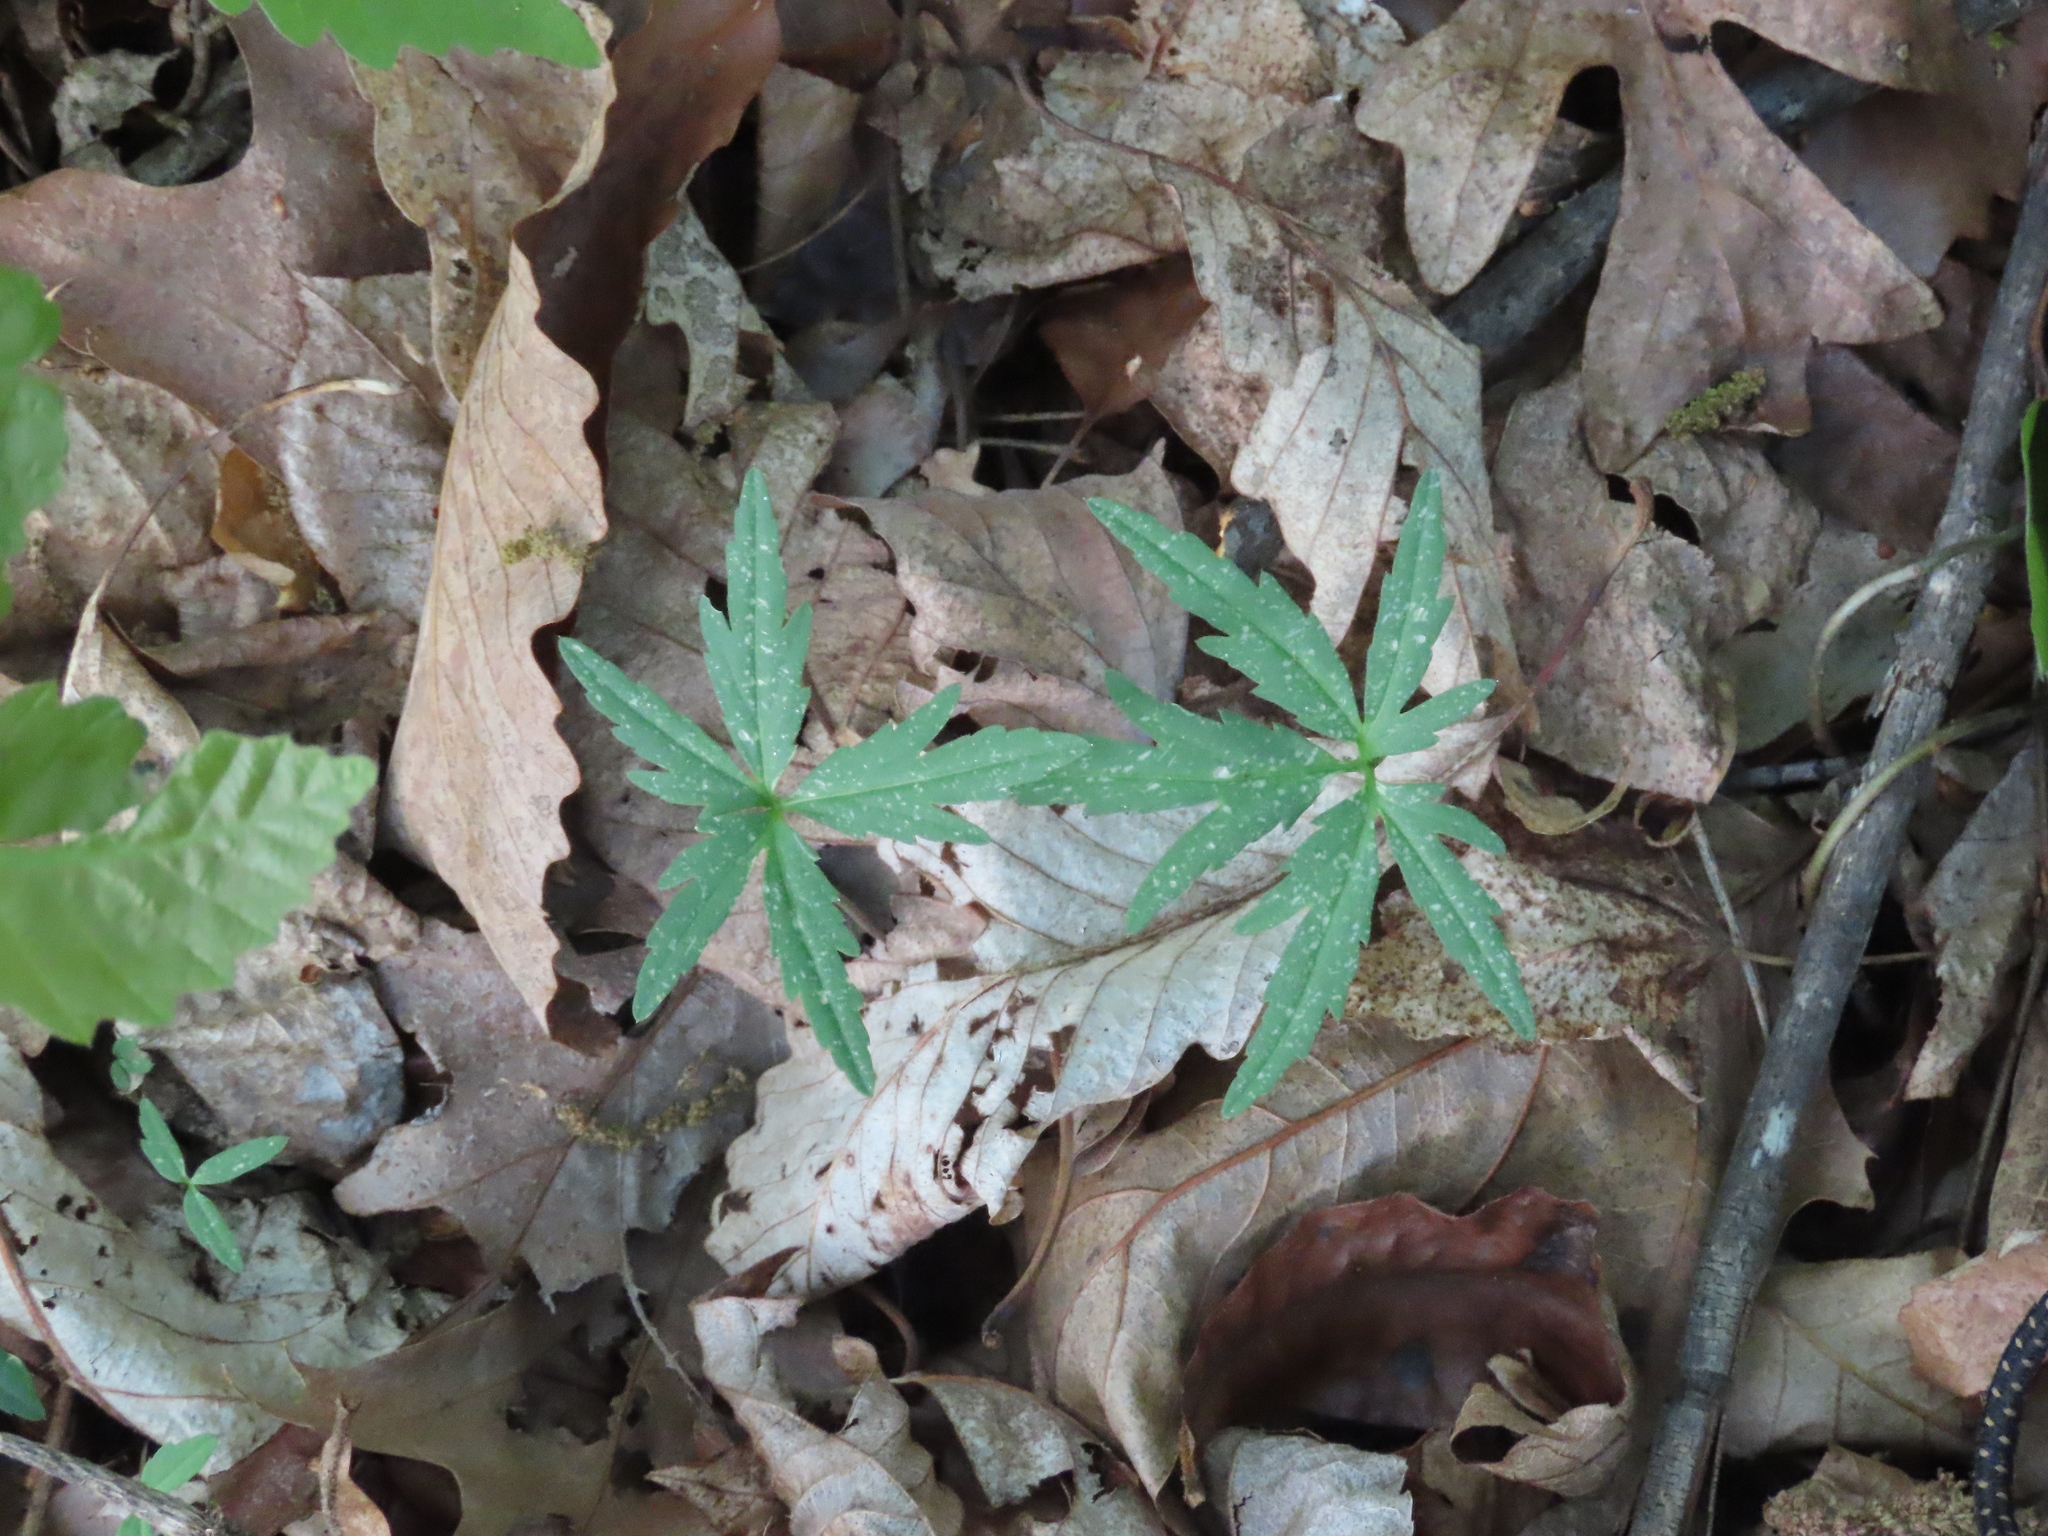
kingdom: Plantae
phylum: Tracheophyta
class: Magnoliopsida
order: Brassicales
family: Brassicaceae
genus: Cardamine
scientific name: Cardamine concatenata
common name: Cut-leaf toothcup
